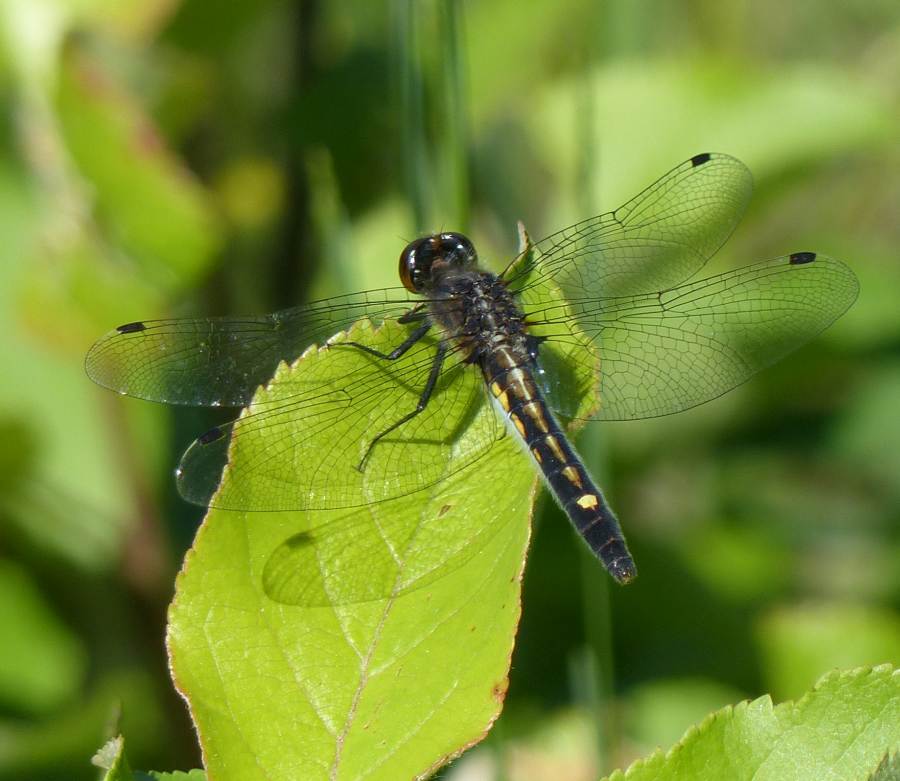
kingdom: Animalia
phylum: Arthropoda
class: Insecta
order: Odonata
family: Libellulidae
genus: Leucorrhinia
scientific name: Leucorrhinia intacta
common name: Dot-tailed whiteface
